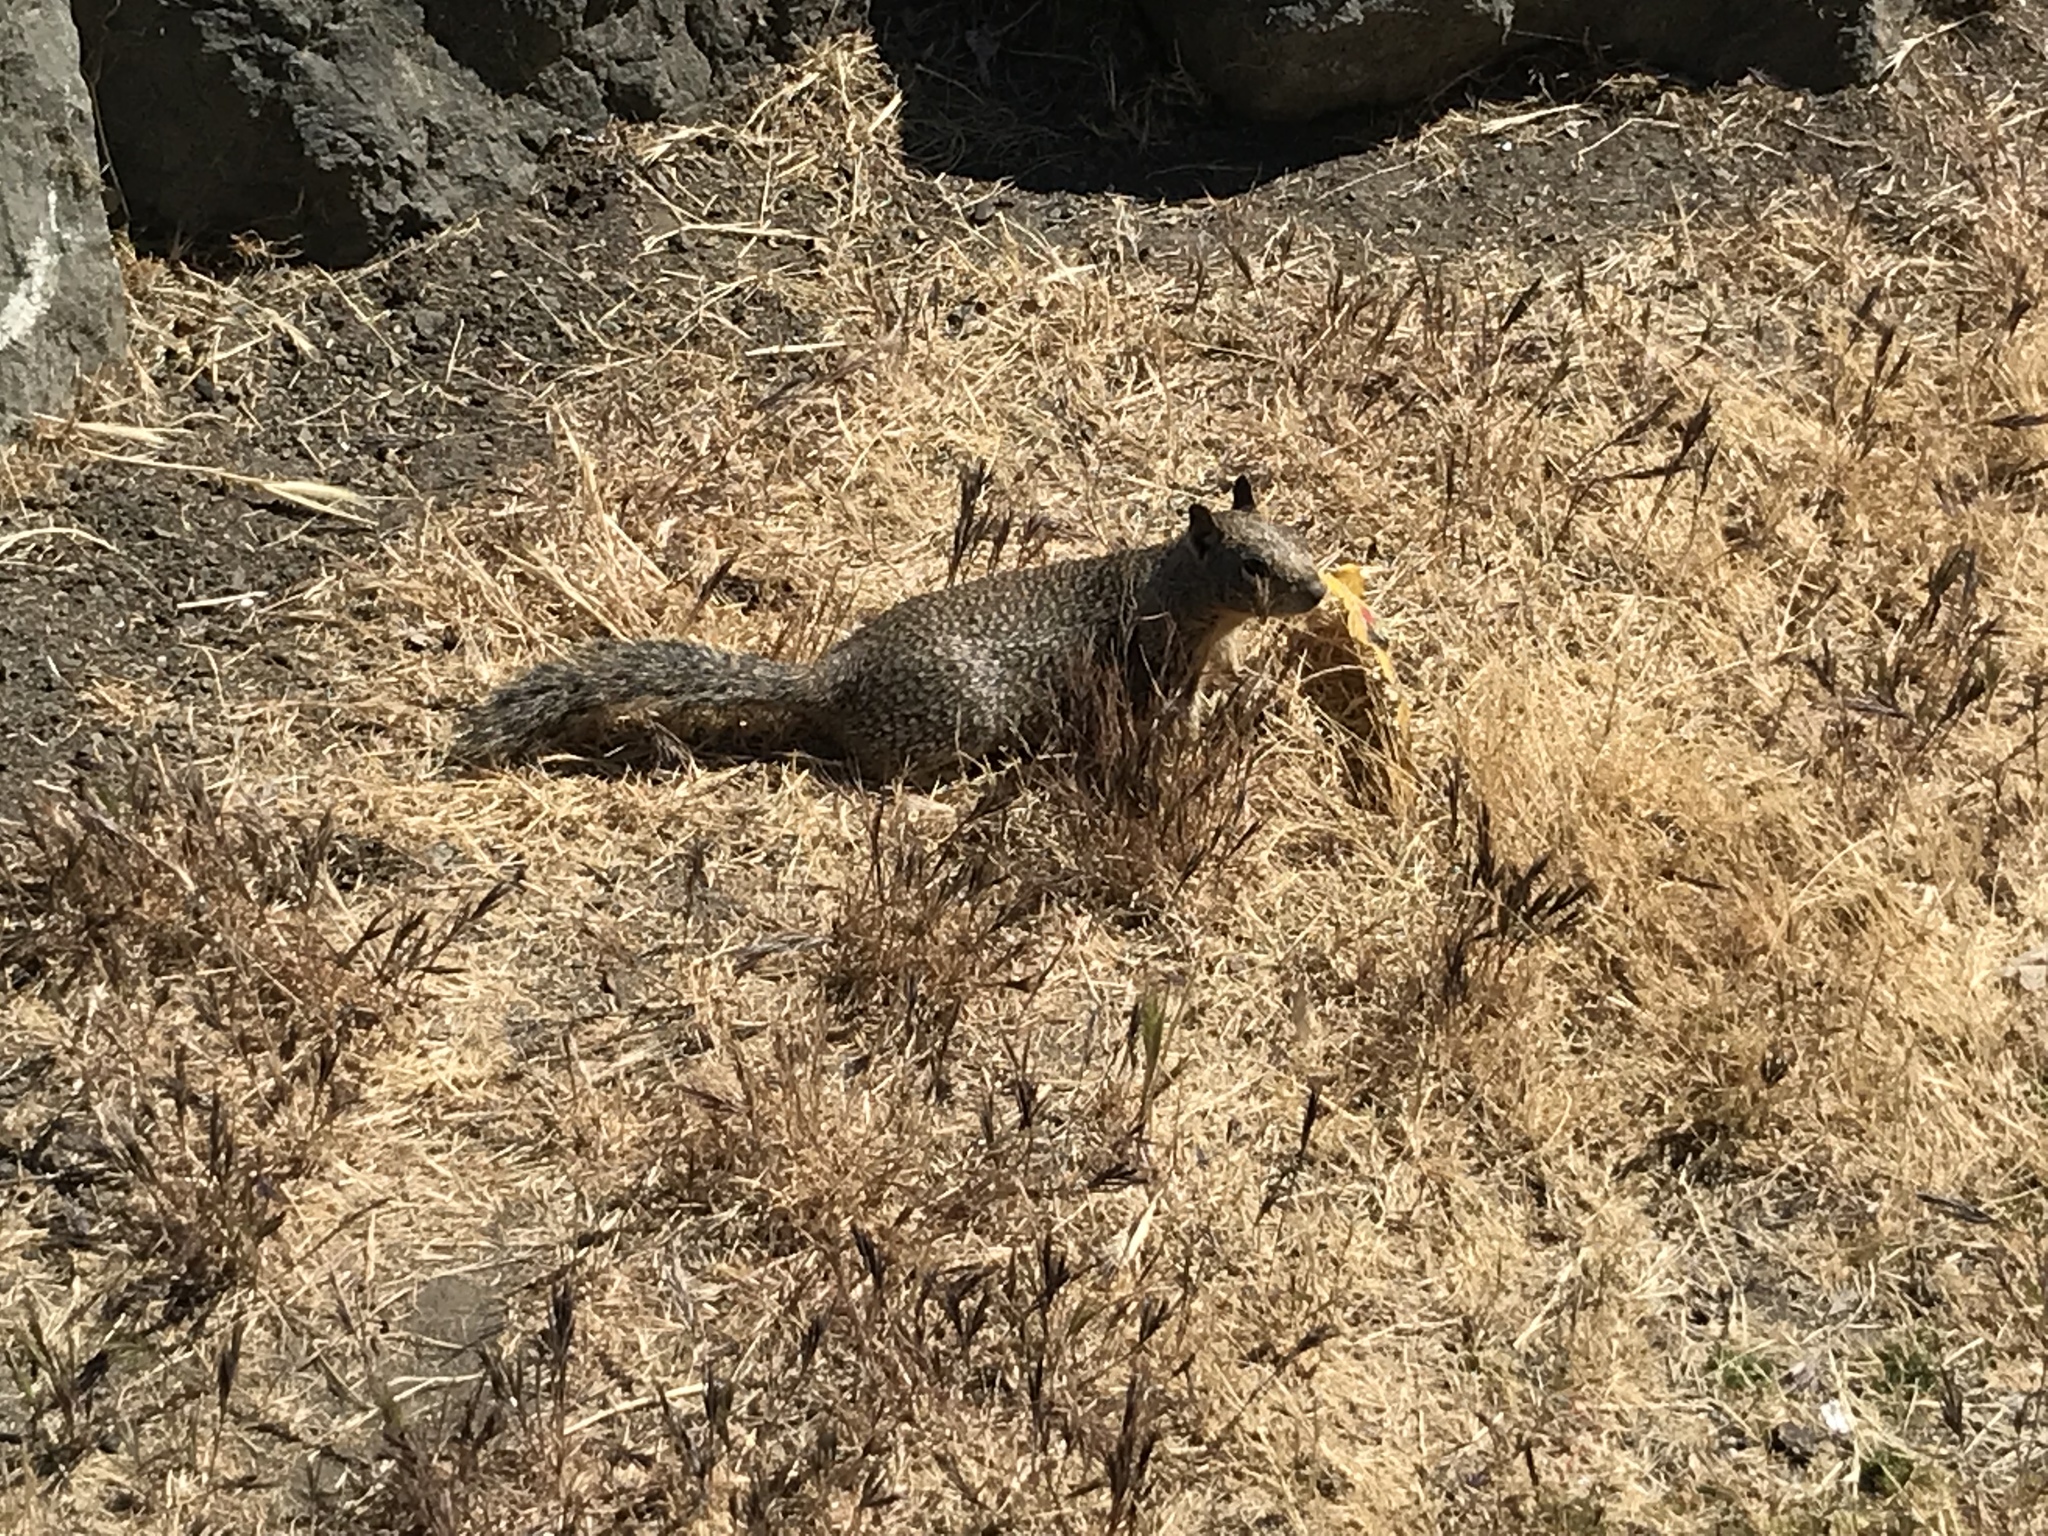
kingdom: Animalia
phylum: Chordata
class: Mammalia
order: Rodentia
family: Sciuridae
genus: Otospermophilus
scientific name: Otospermophilus beecheyi
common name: California ground squirrel
